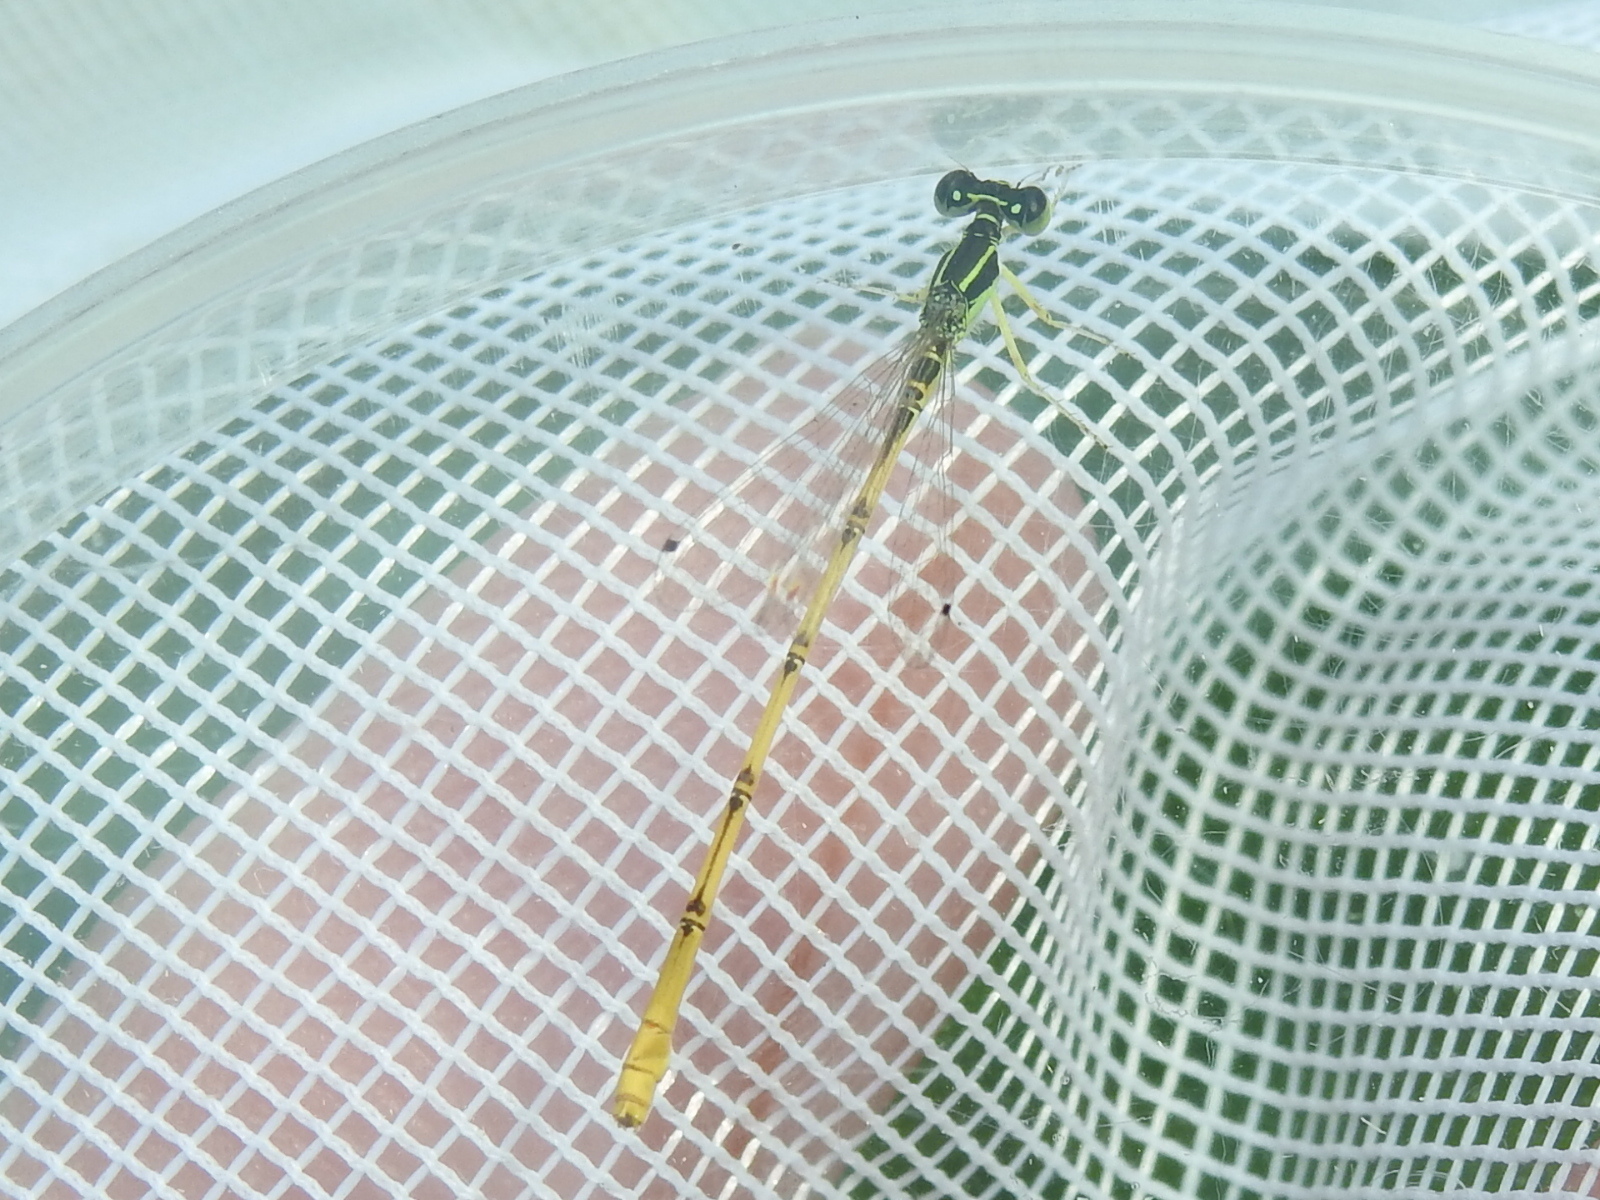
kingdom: Animalia
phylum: Arthropoda
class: Insecta
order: Odonata
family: Coenagrionidae
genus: Ischnura
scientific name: Ischnura hastata
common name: Citrine forktail
